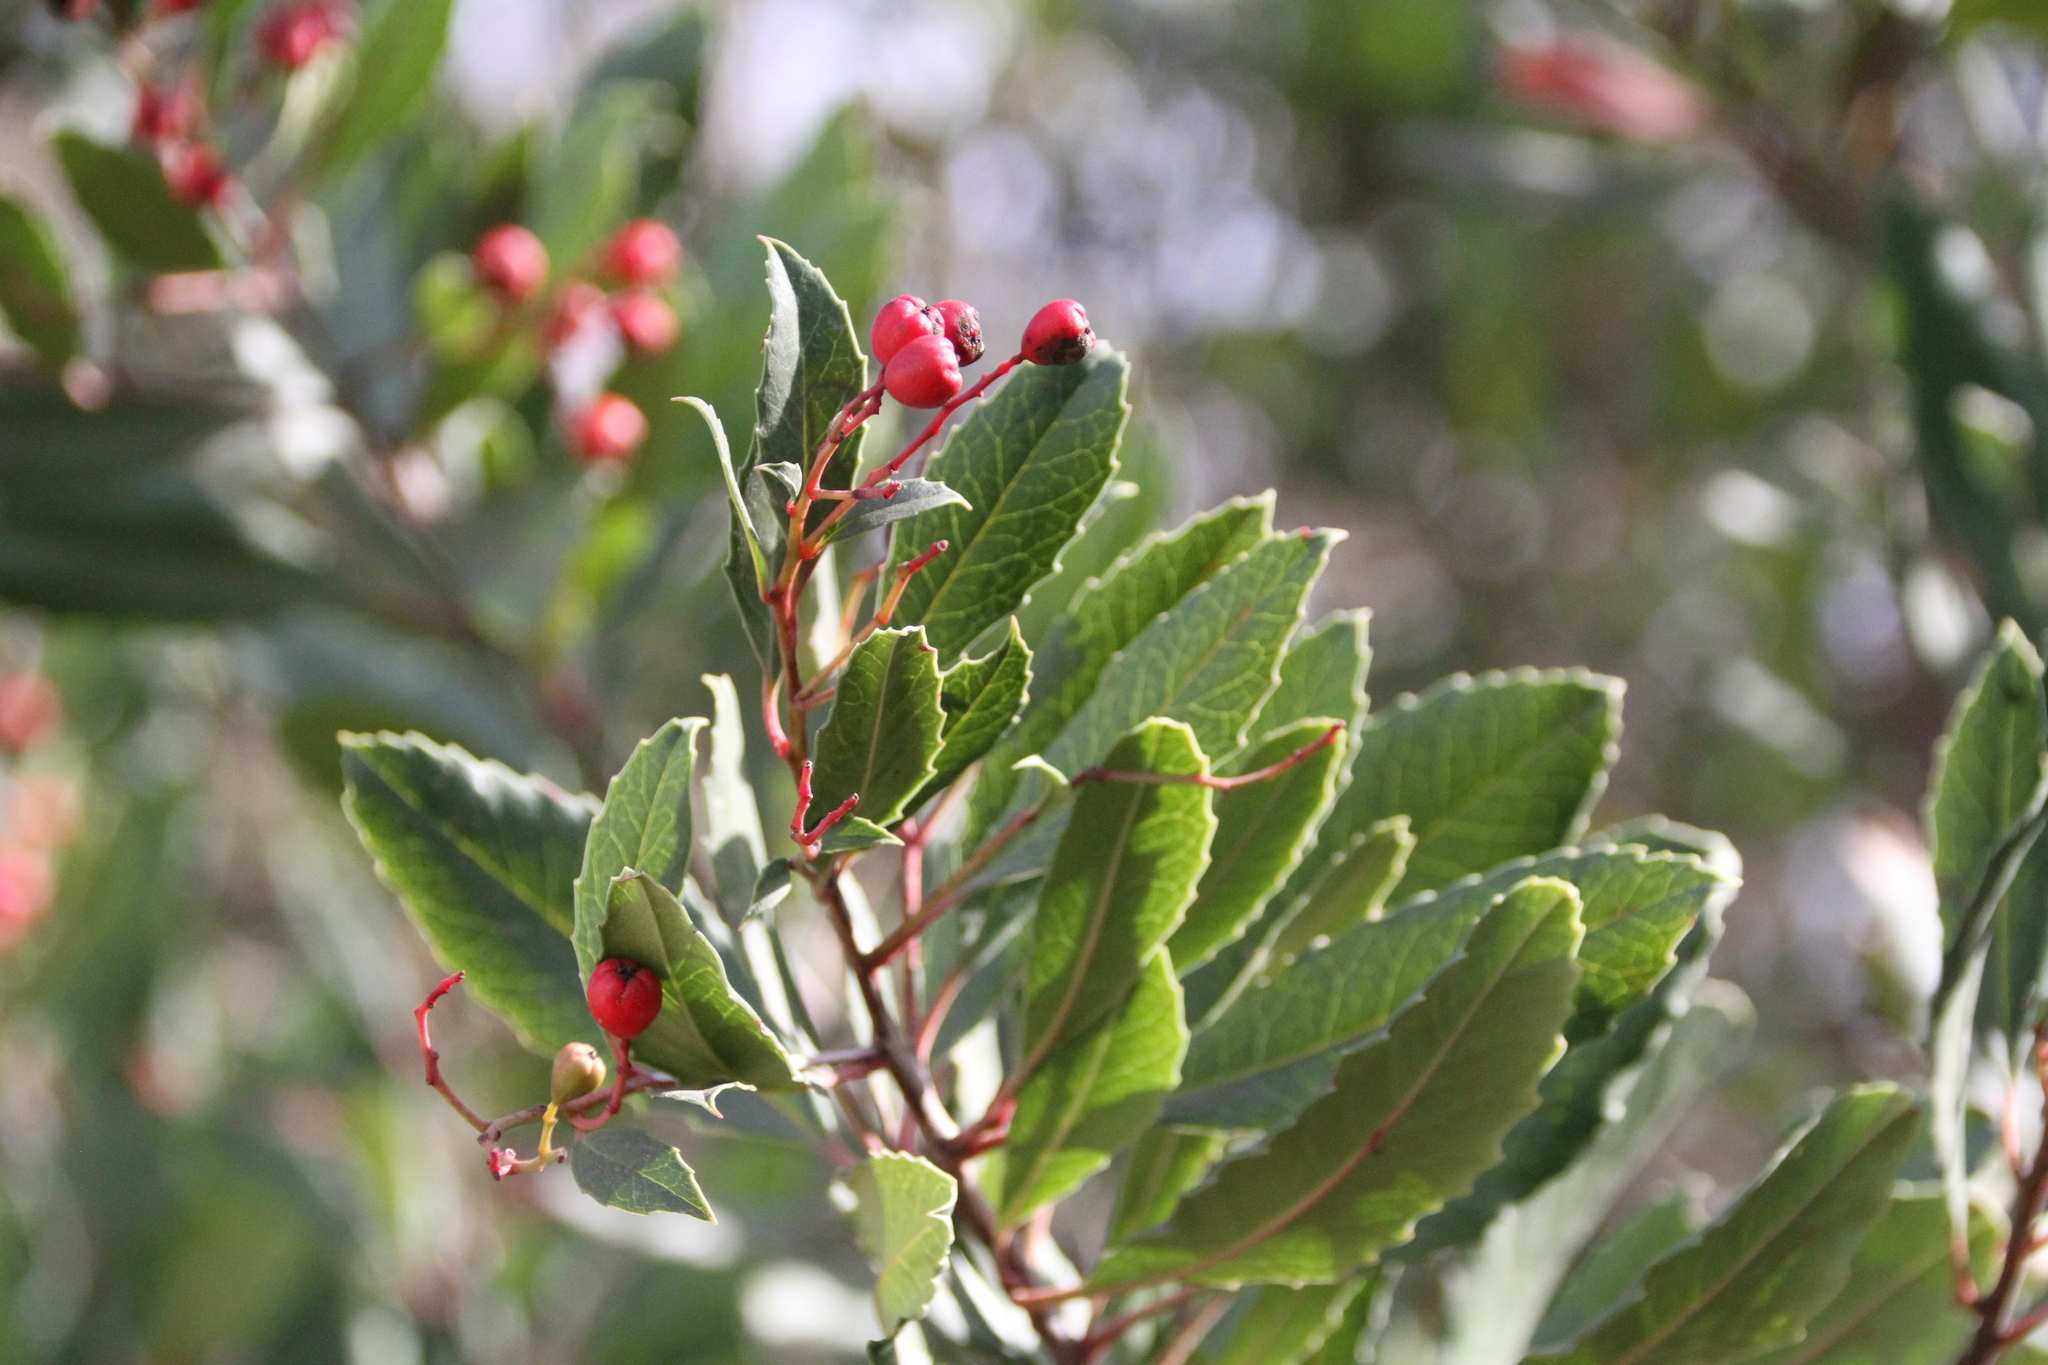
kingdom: Plantae
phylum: Tracheophyta
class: Magnoliopsida
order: Rosales
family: Rosaceae
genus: Heteromeles
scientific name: Heteromeles arbutifolia
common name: California-holly
